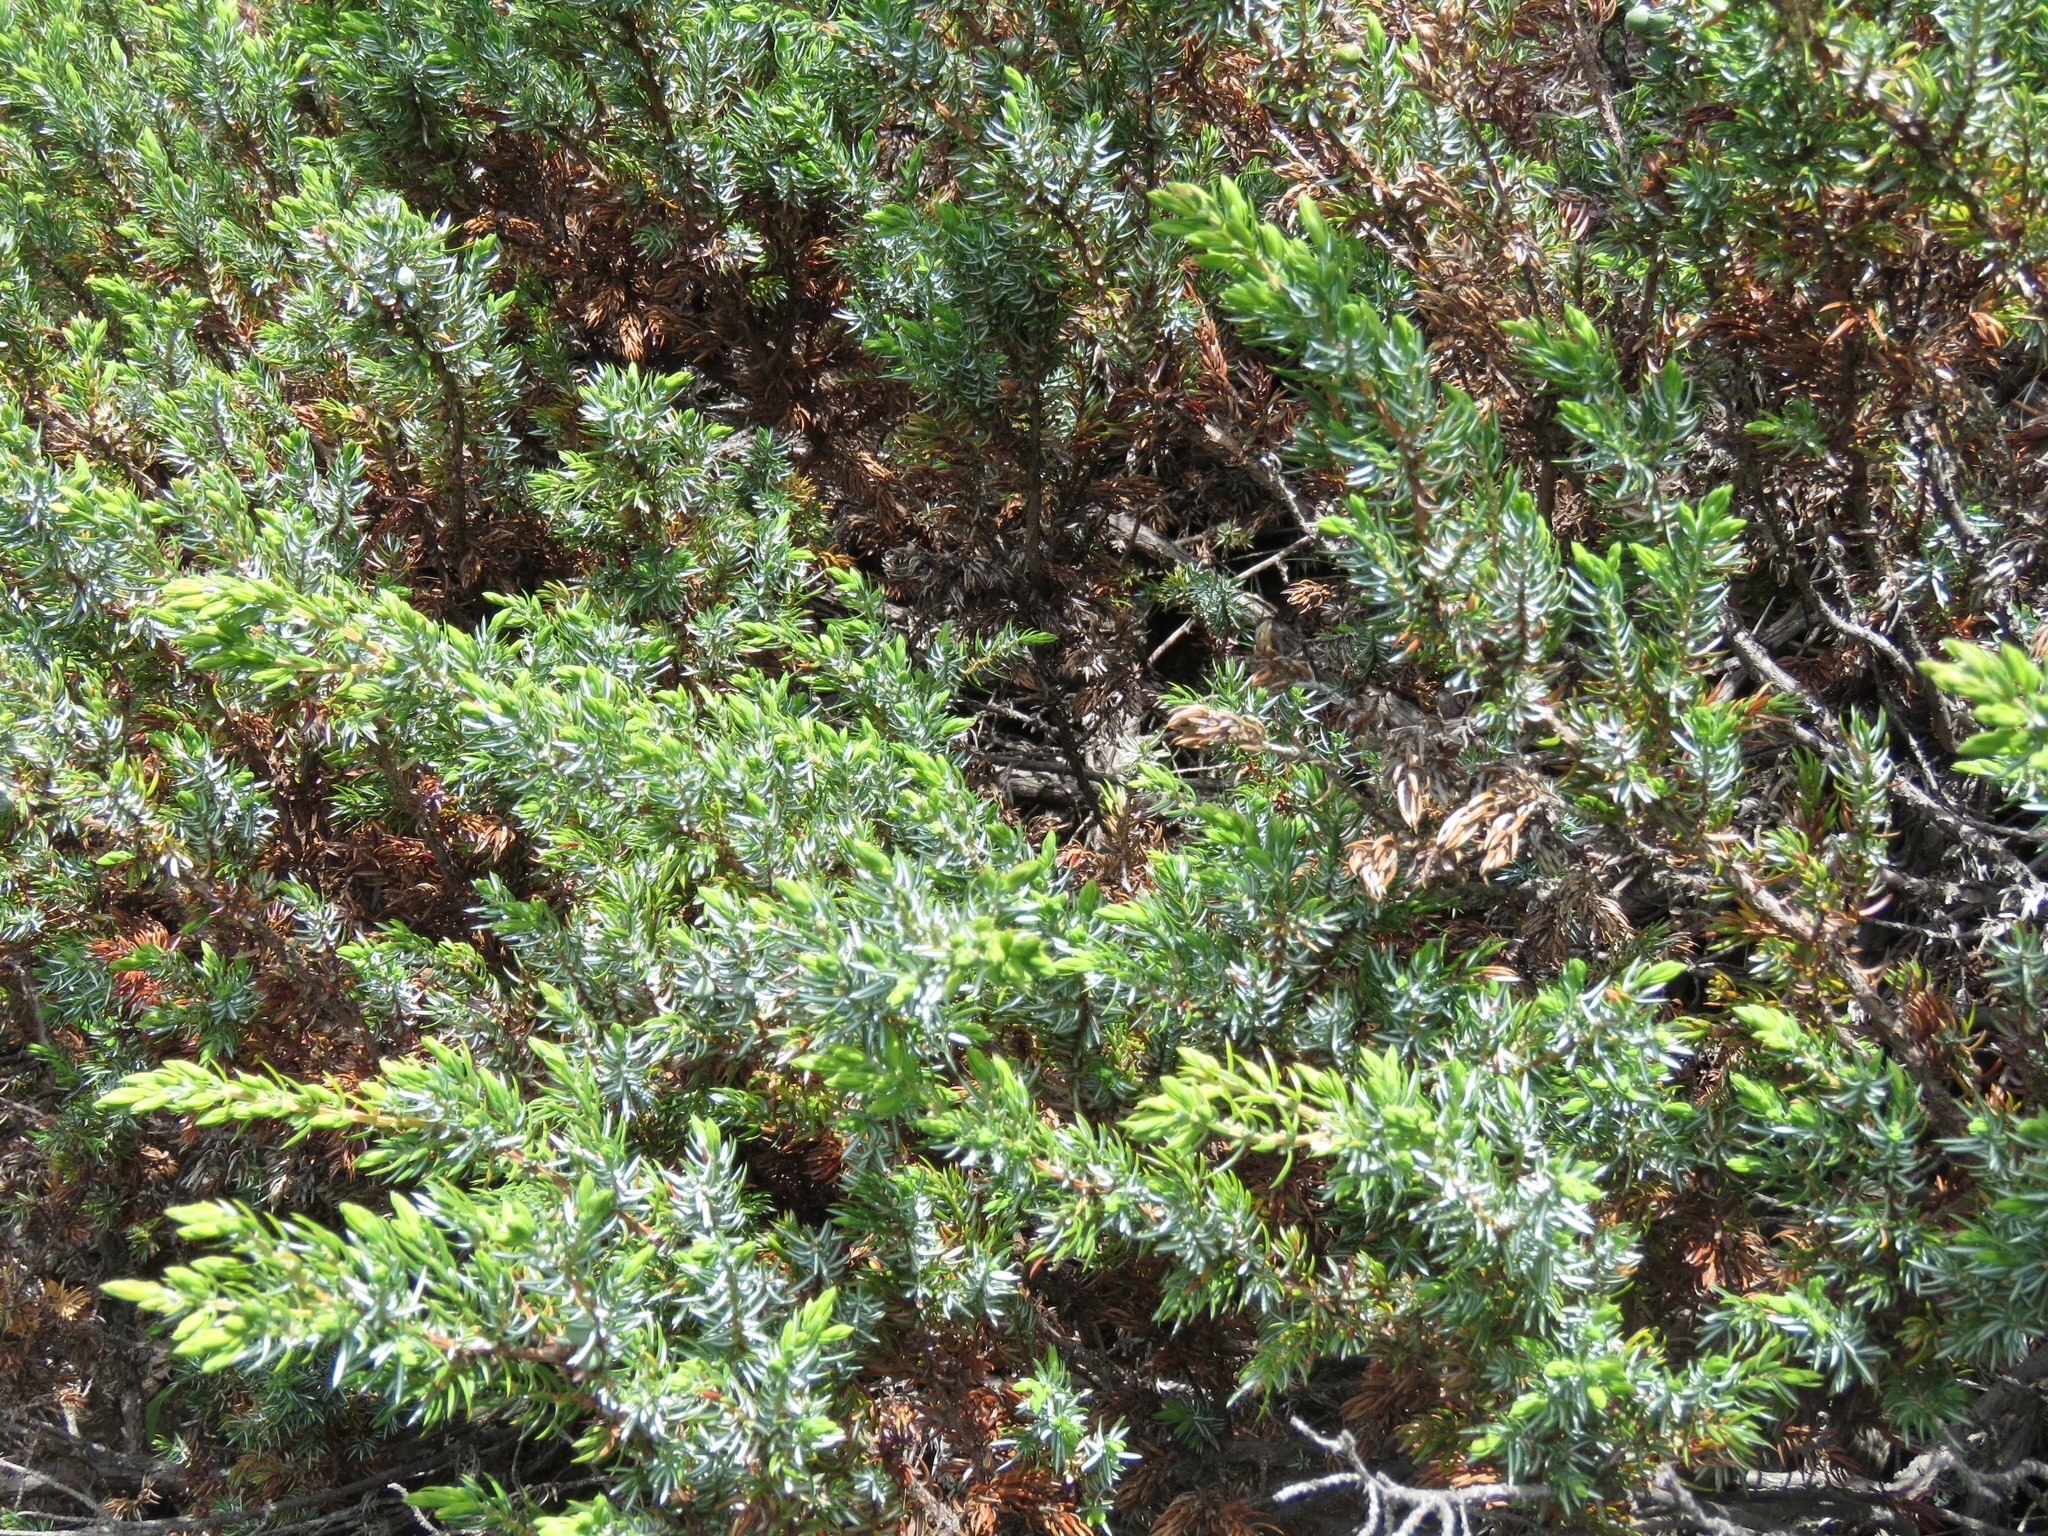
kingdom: Plantae
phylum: Tracheophyta
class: Pinopsida
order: Pinales
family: Cupressaceae
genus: Juniperus
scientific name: Juniperus communis
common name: Common juniper
